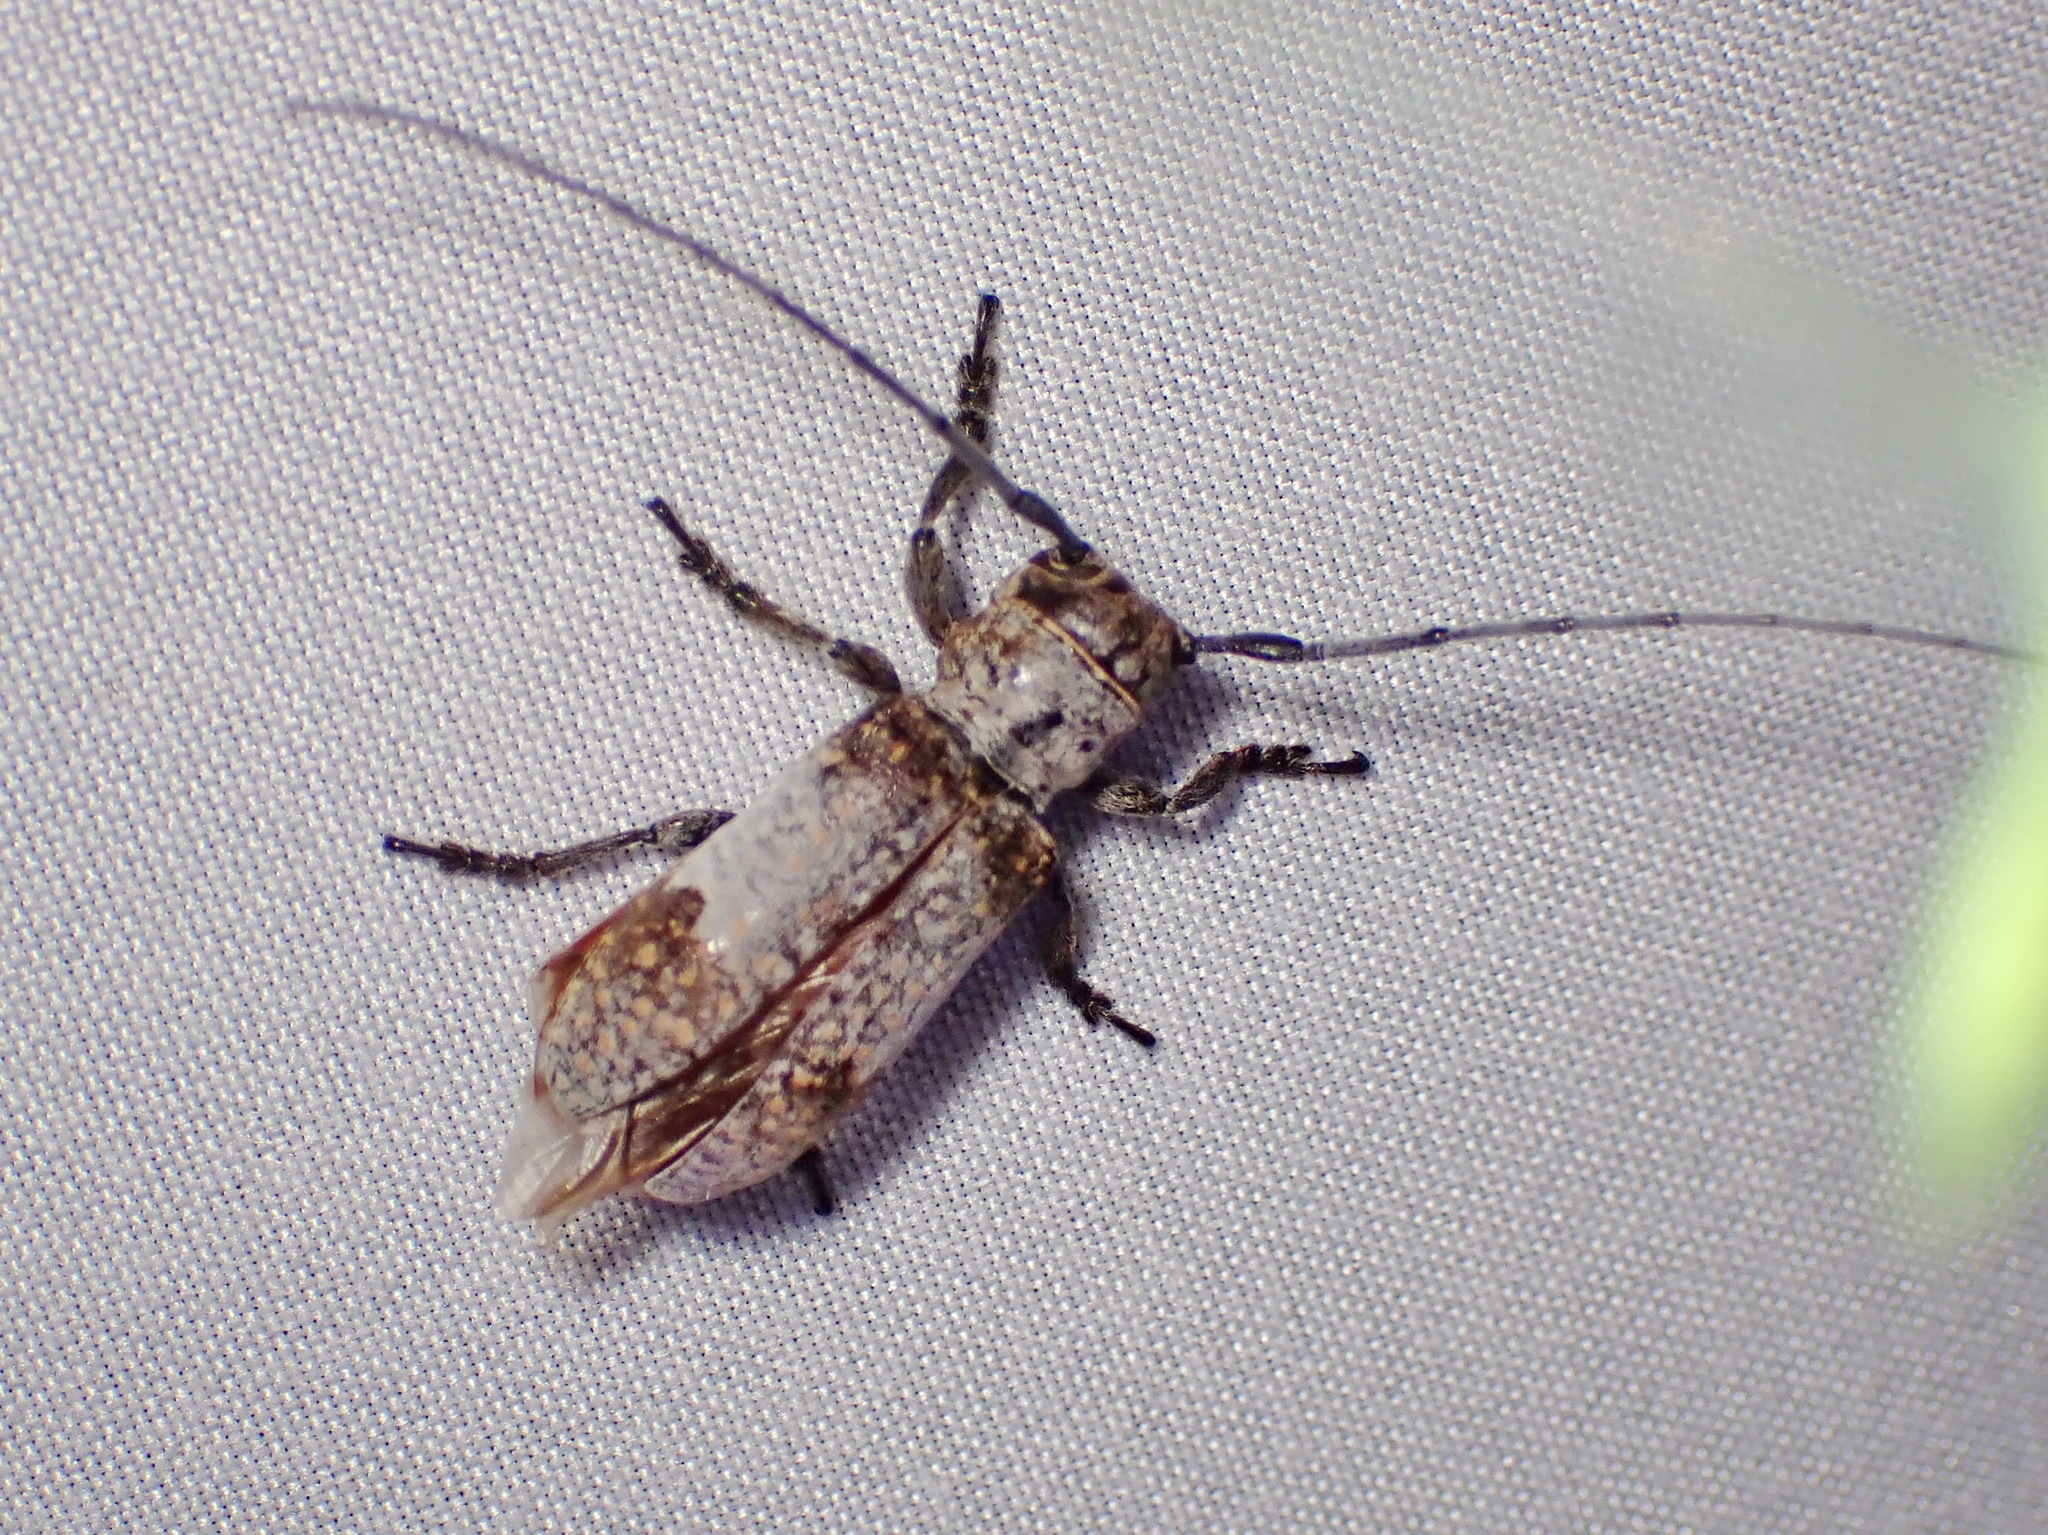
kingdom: Animalia
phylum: Arthropoda
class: Insecta
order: Coleoptera
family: Cerambycidae
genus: Oncideres
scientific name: Oncideres cingulata
